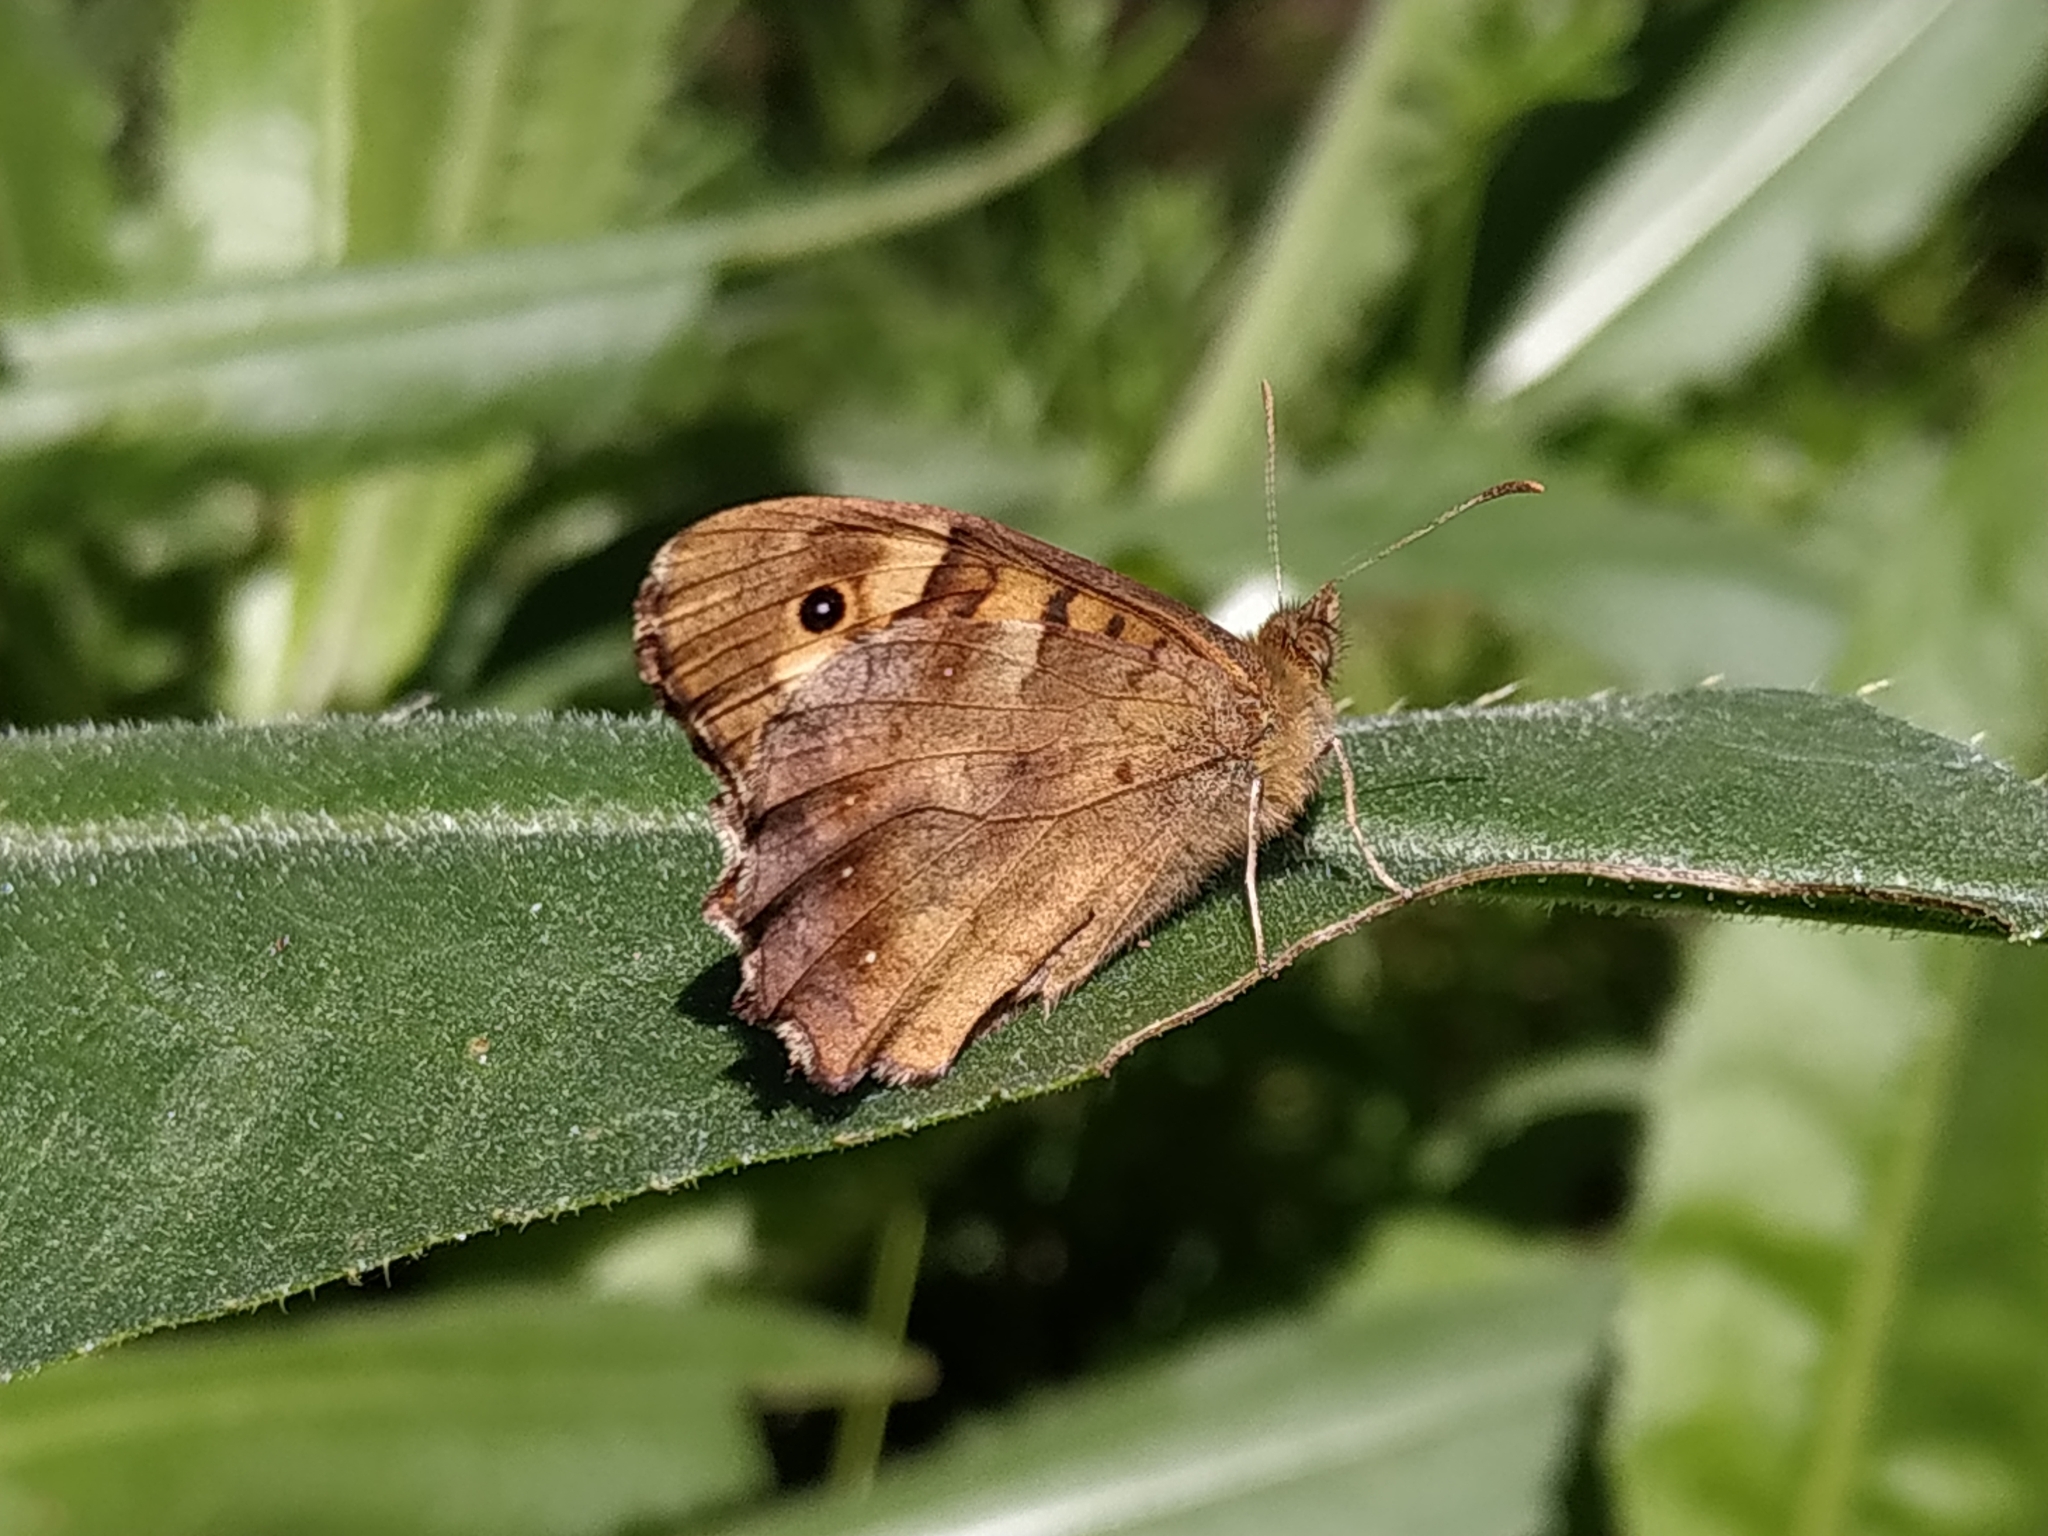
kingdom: Animalia
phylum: Arthropoda
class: Insecta
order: Lepidoptera
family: Nymphalidae
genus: Pararge
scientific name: Pararge aegeria
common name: Speckled wood
